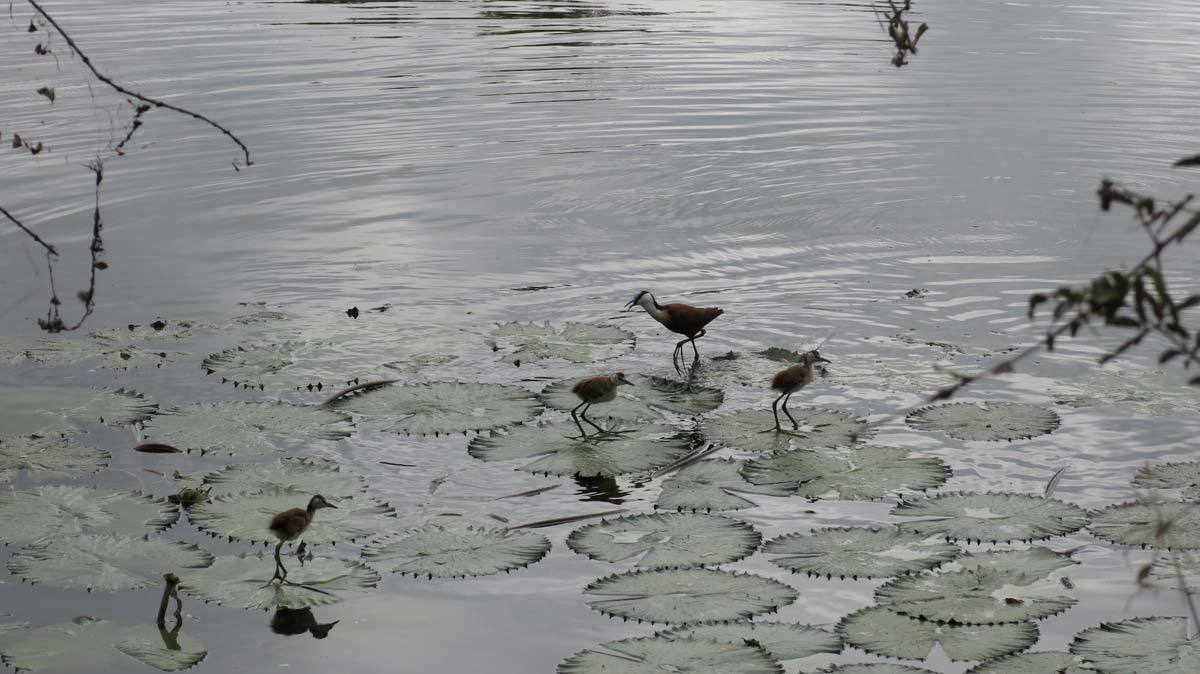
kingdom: Animalia
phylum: Chordata
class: Aves
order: Charadriiformes
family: Jacanidae
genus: Actophilornis
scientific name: Actophilornis africanus
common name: African jacana
